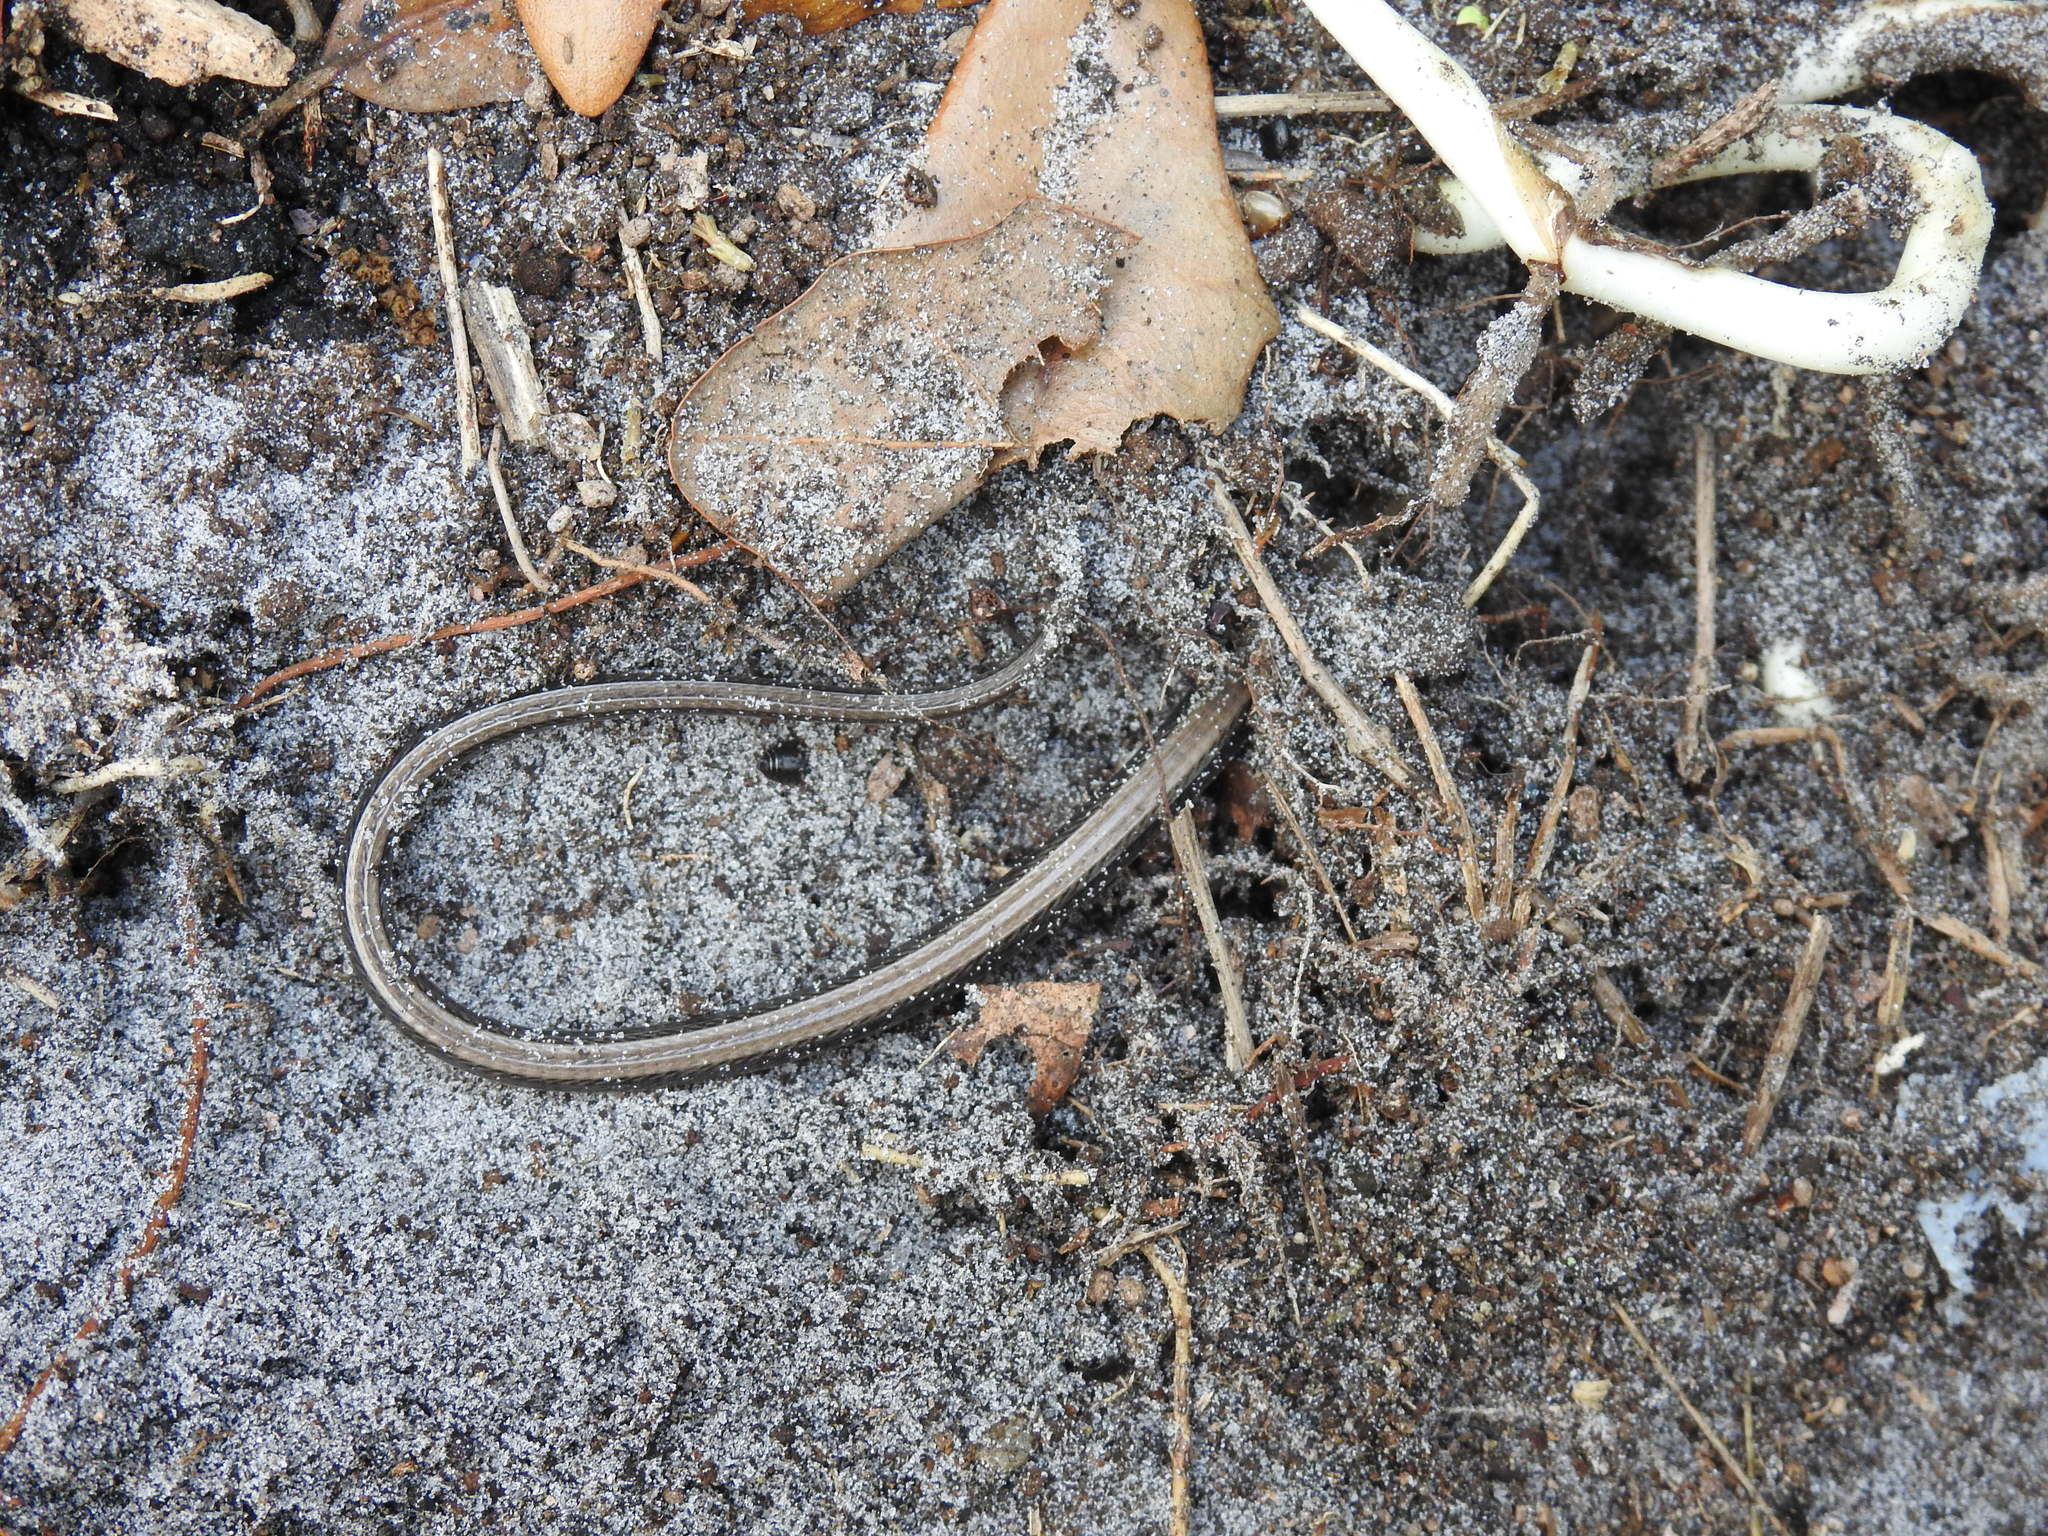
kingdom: Animalia
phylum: Chordata
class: Squamata
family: Anguidae
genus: Ophisaurus
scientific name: Ophisaurus ventralis
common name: Eastern glass lizard
